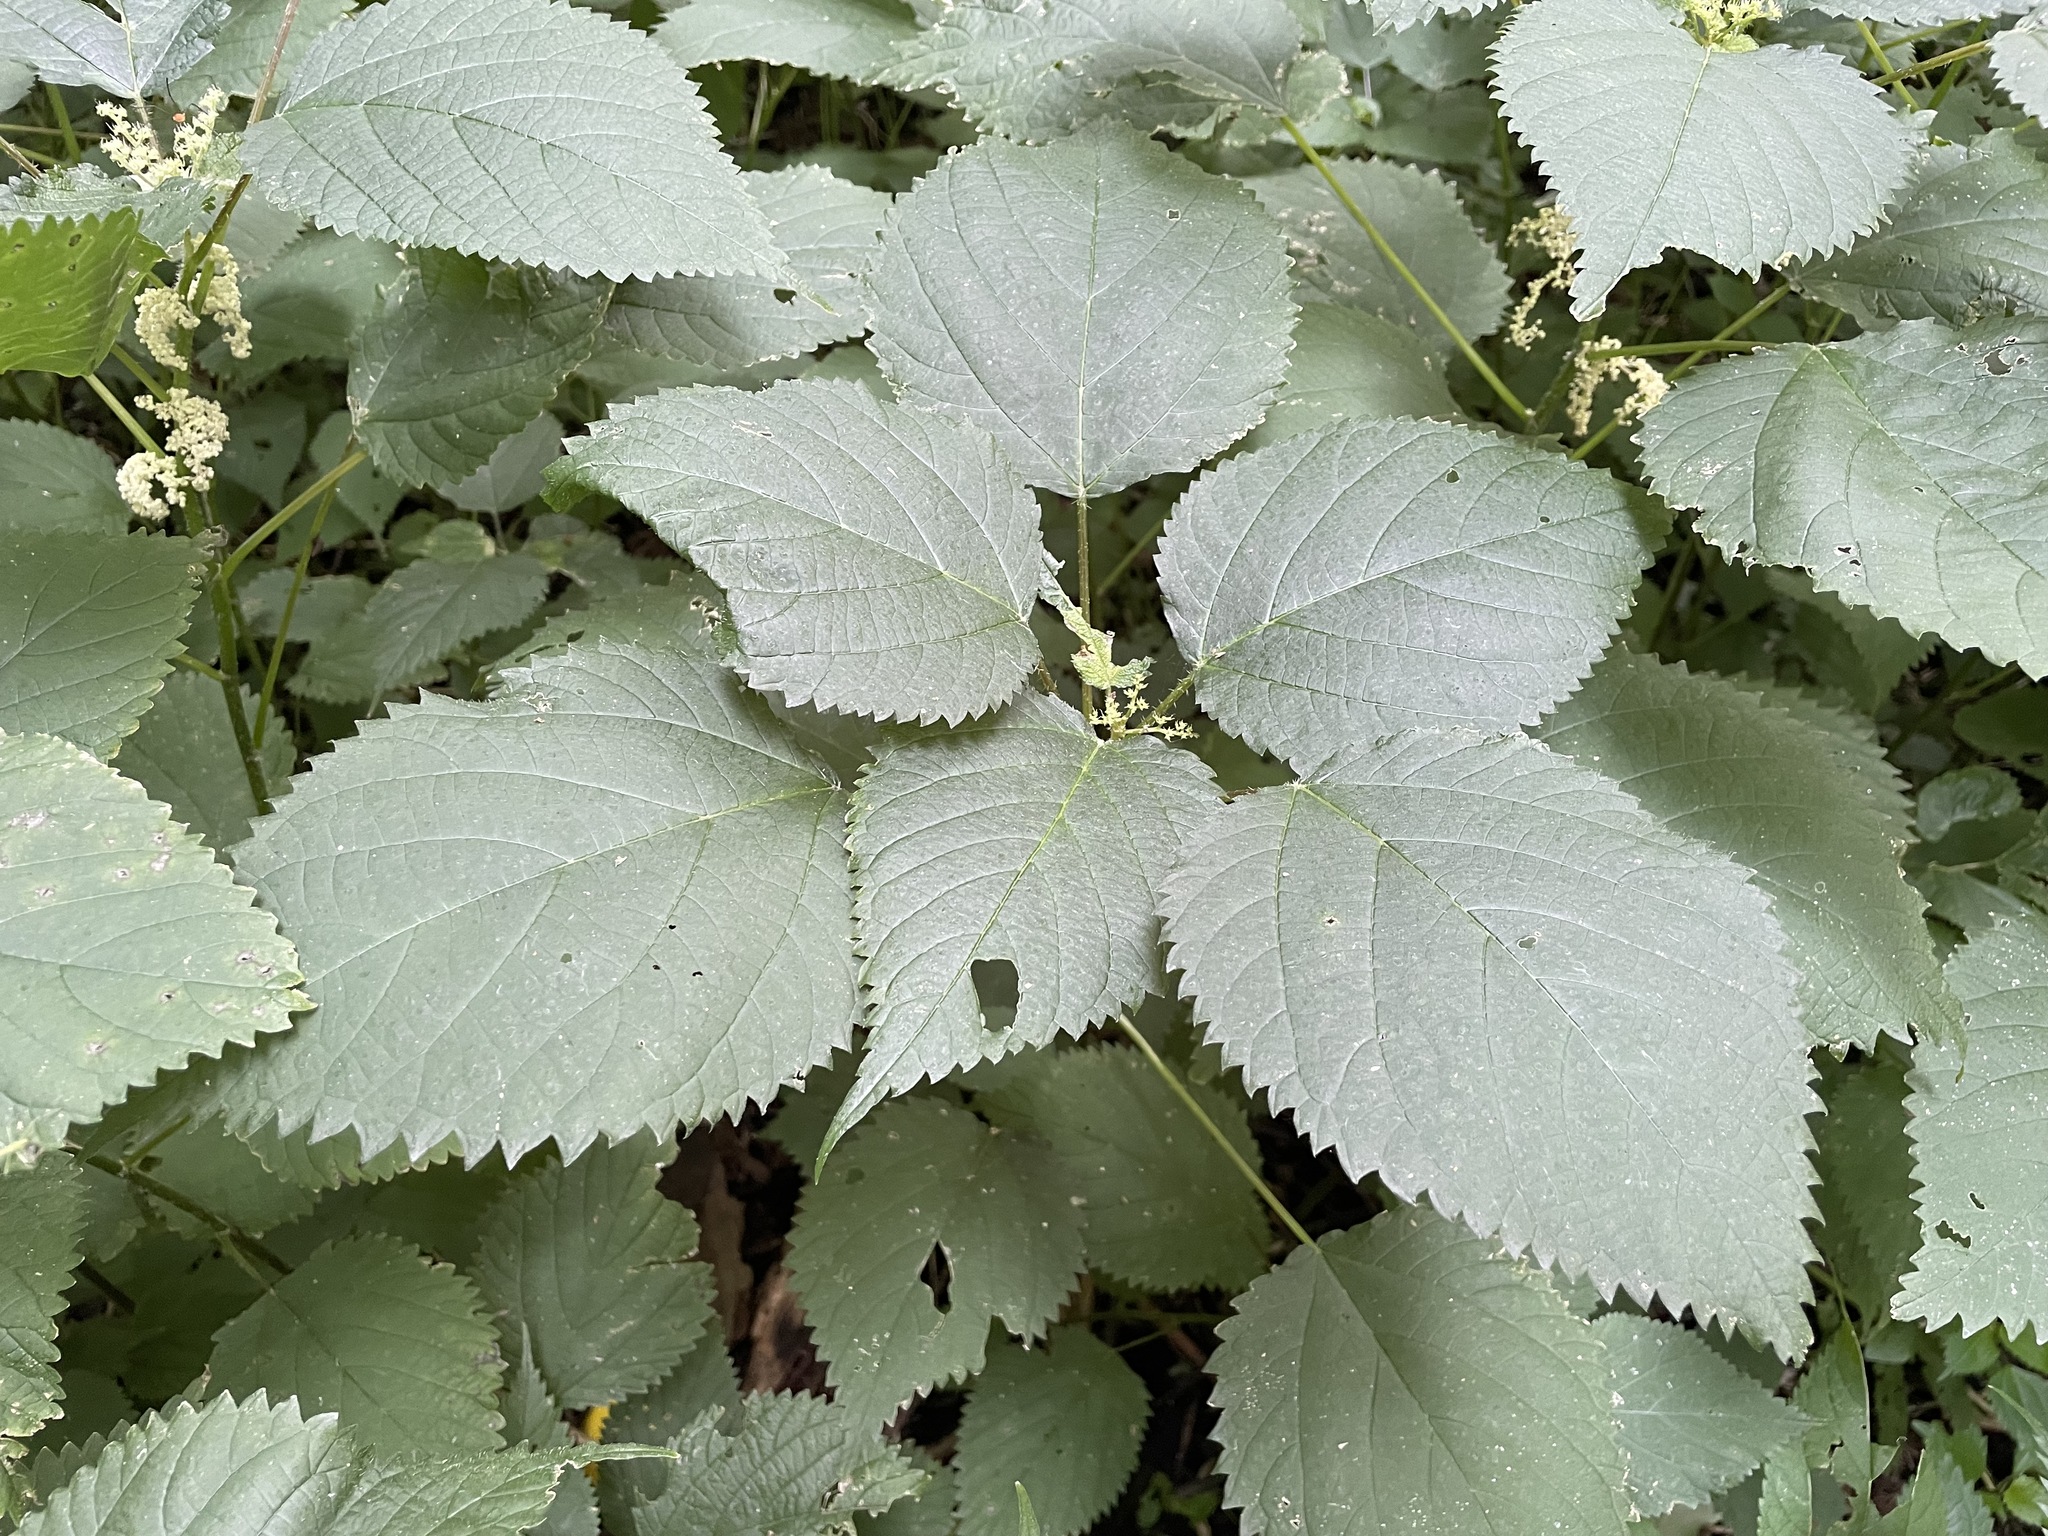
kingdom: Plantae
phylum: Tracheophyta
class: Magnoliopsida
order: Rosales
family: Urticaceae
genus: Laportea
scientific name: Laportea canadensis
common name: Canada nettle
